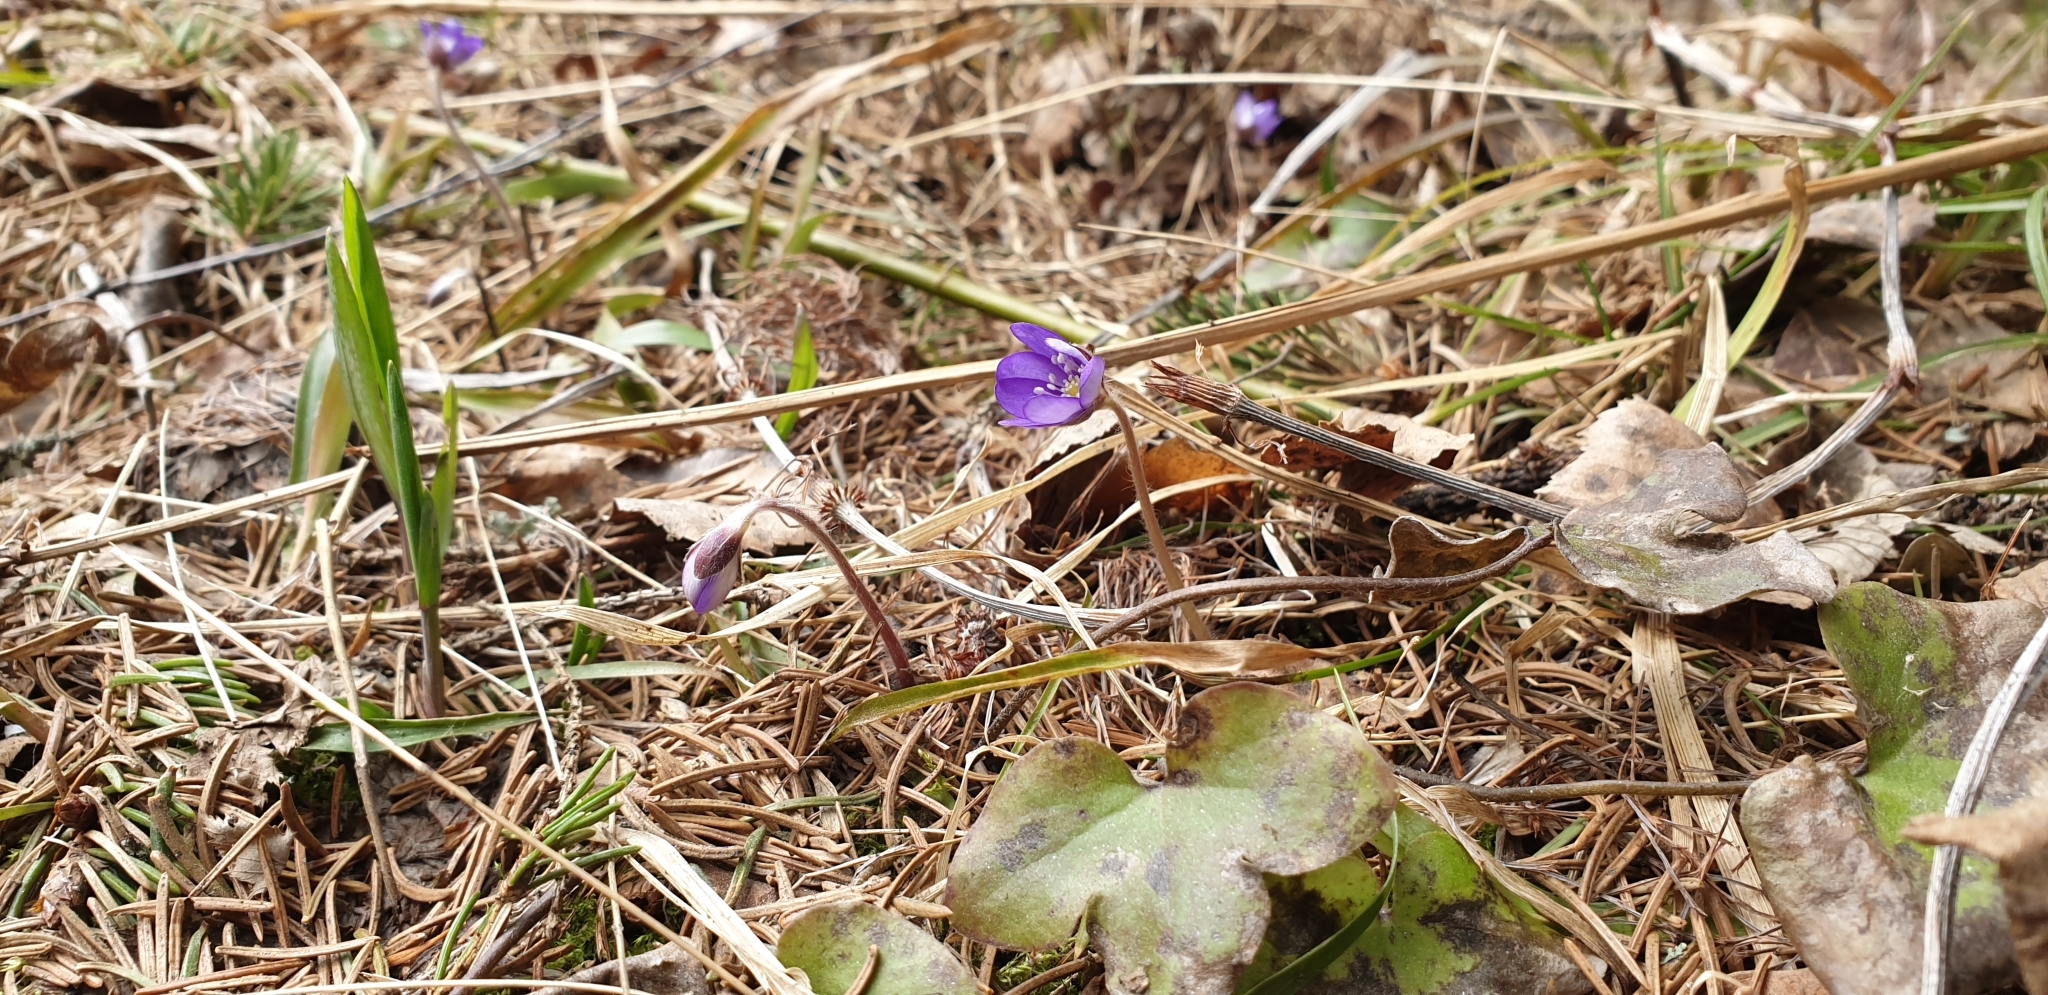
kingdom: Plantae
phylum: Tracheophyta
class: Magnoliopsida
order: Ranunculales
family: Ranunculaceae
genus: Hepatica
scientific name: Hepatica nobilis
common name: Liverleaf
